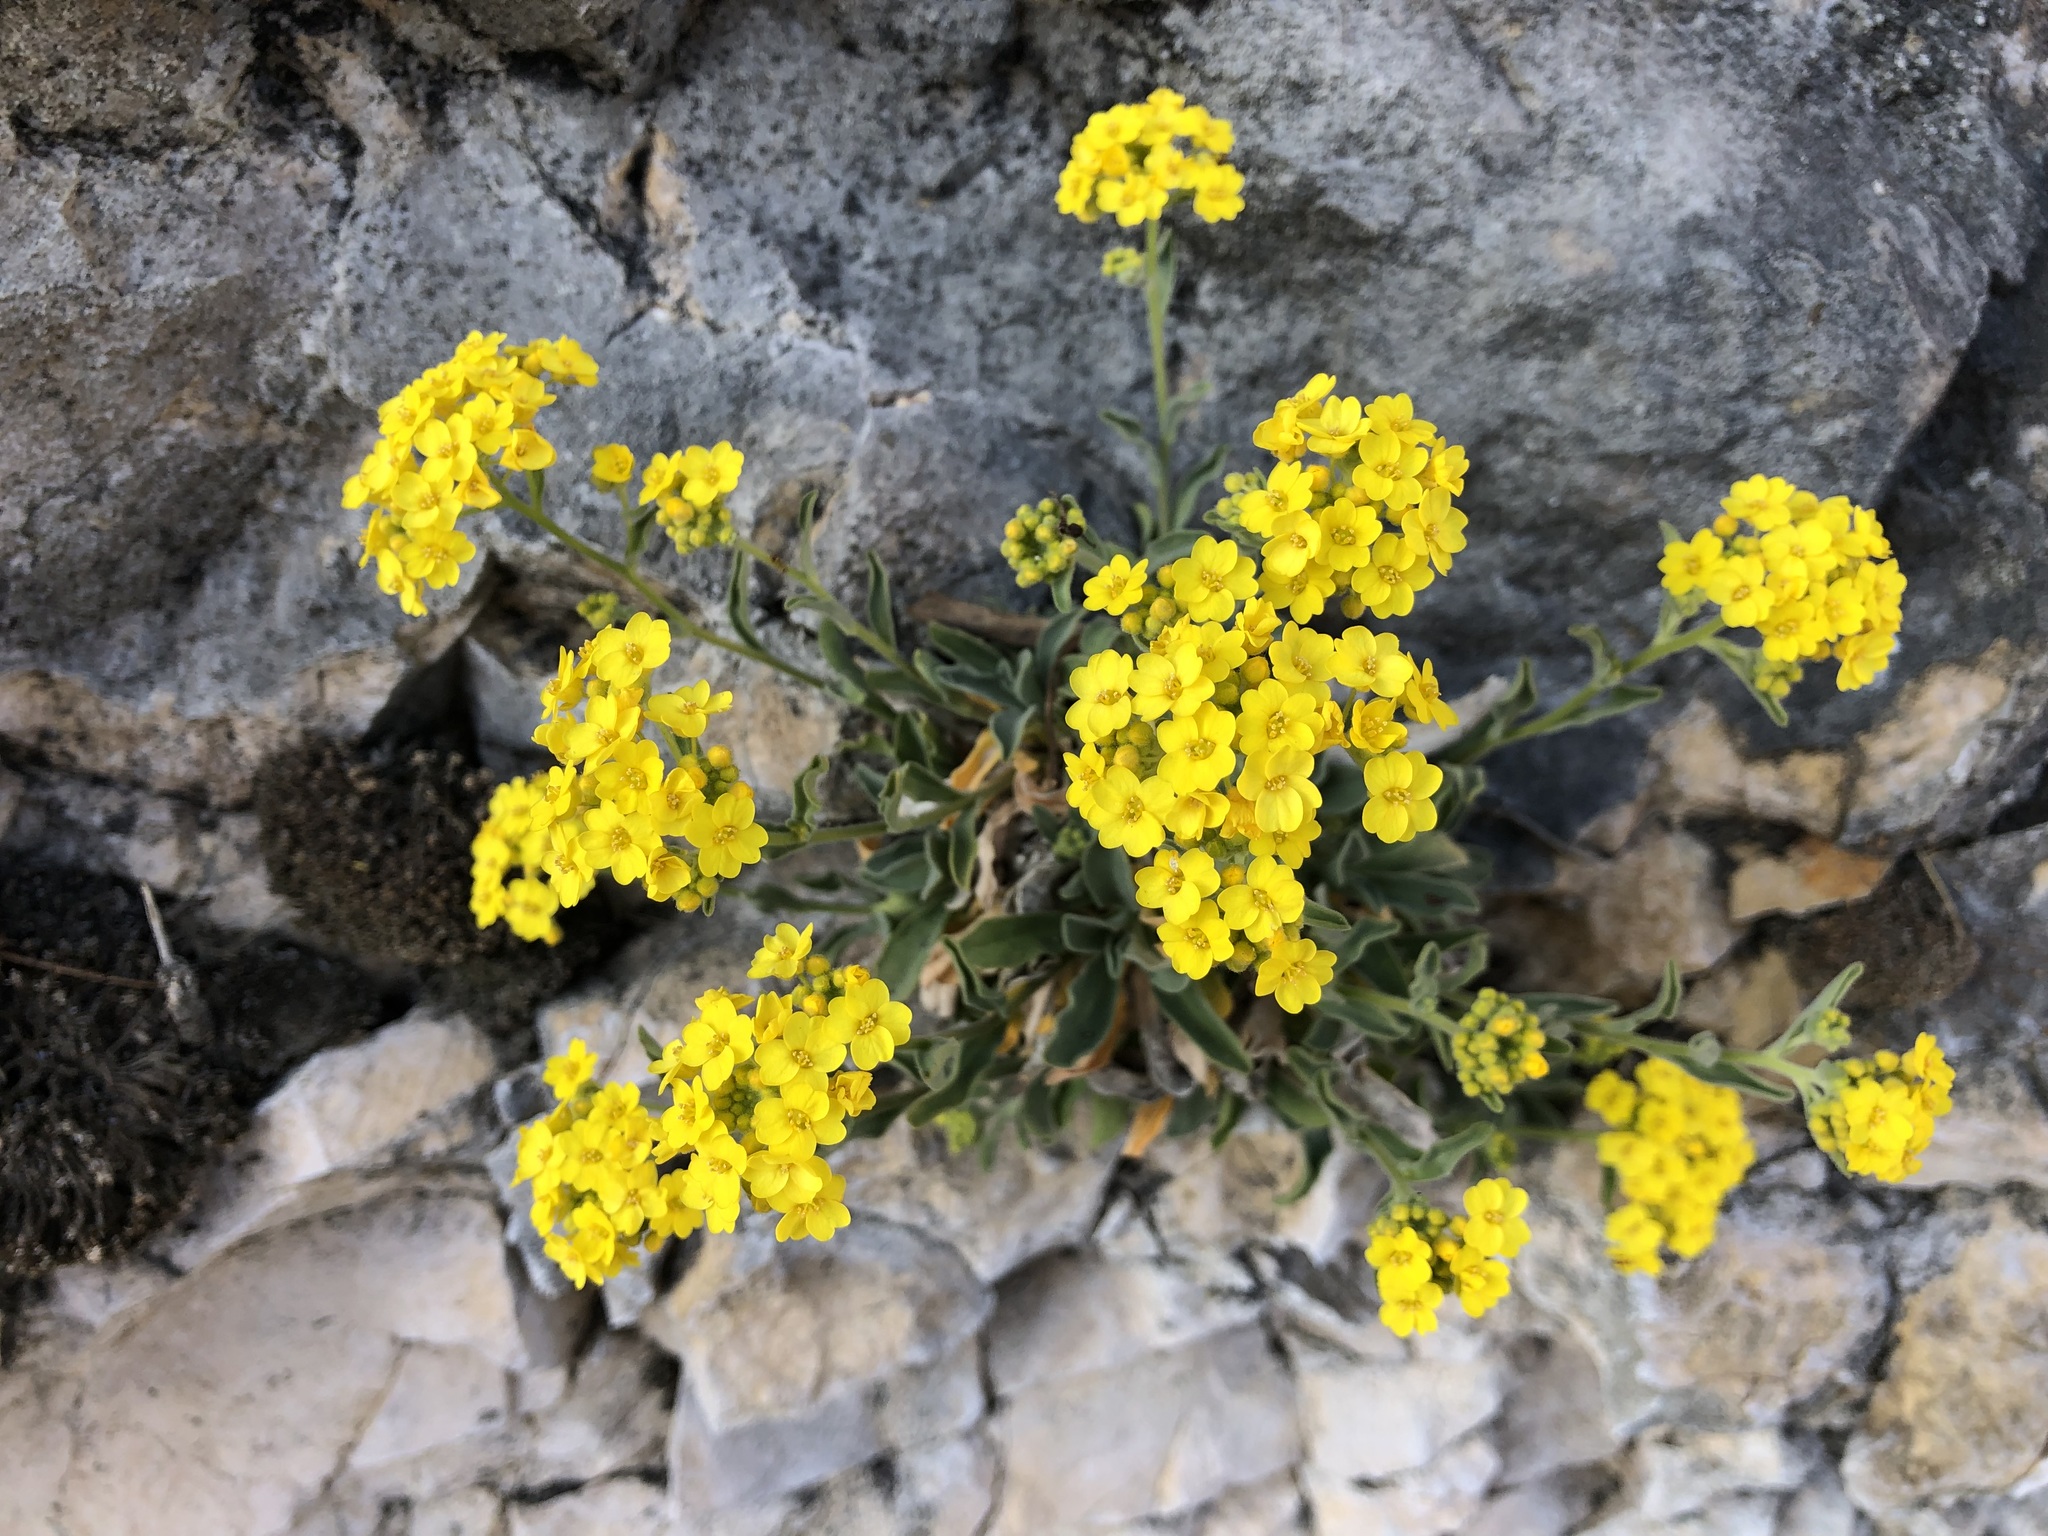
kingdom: Plantae
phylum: Tracheophyta
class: Magnoliopsida
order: Brassicales
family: Brassicaceae
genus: Aurinia
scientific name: Aurinia saxatilis
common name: Golden-tuft alyssum
